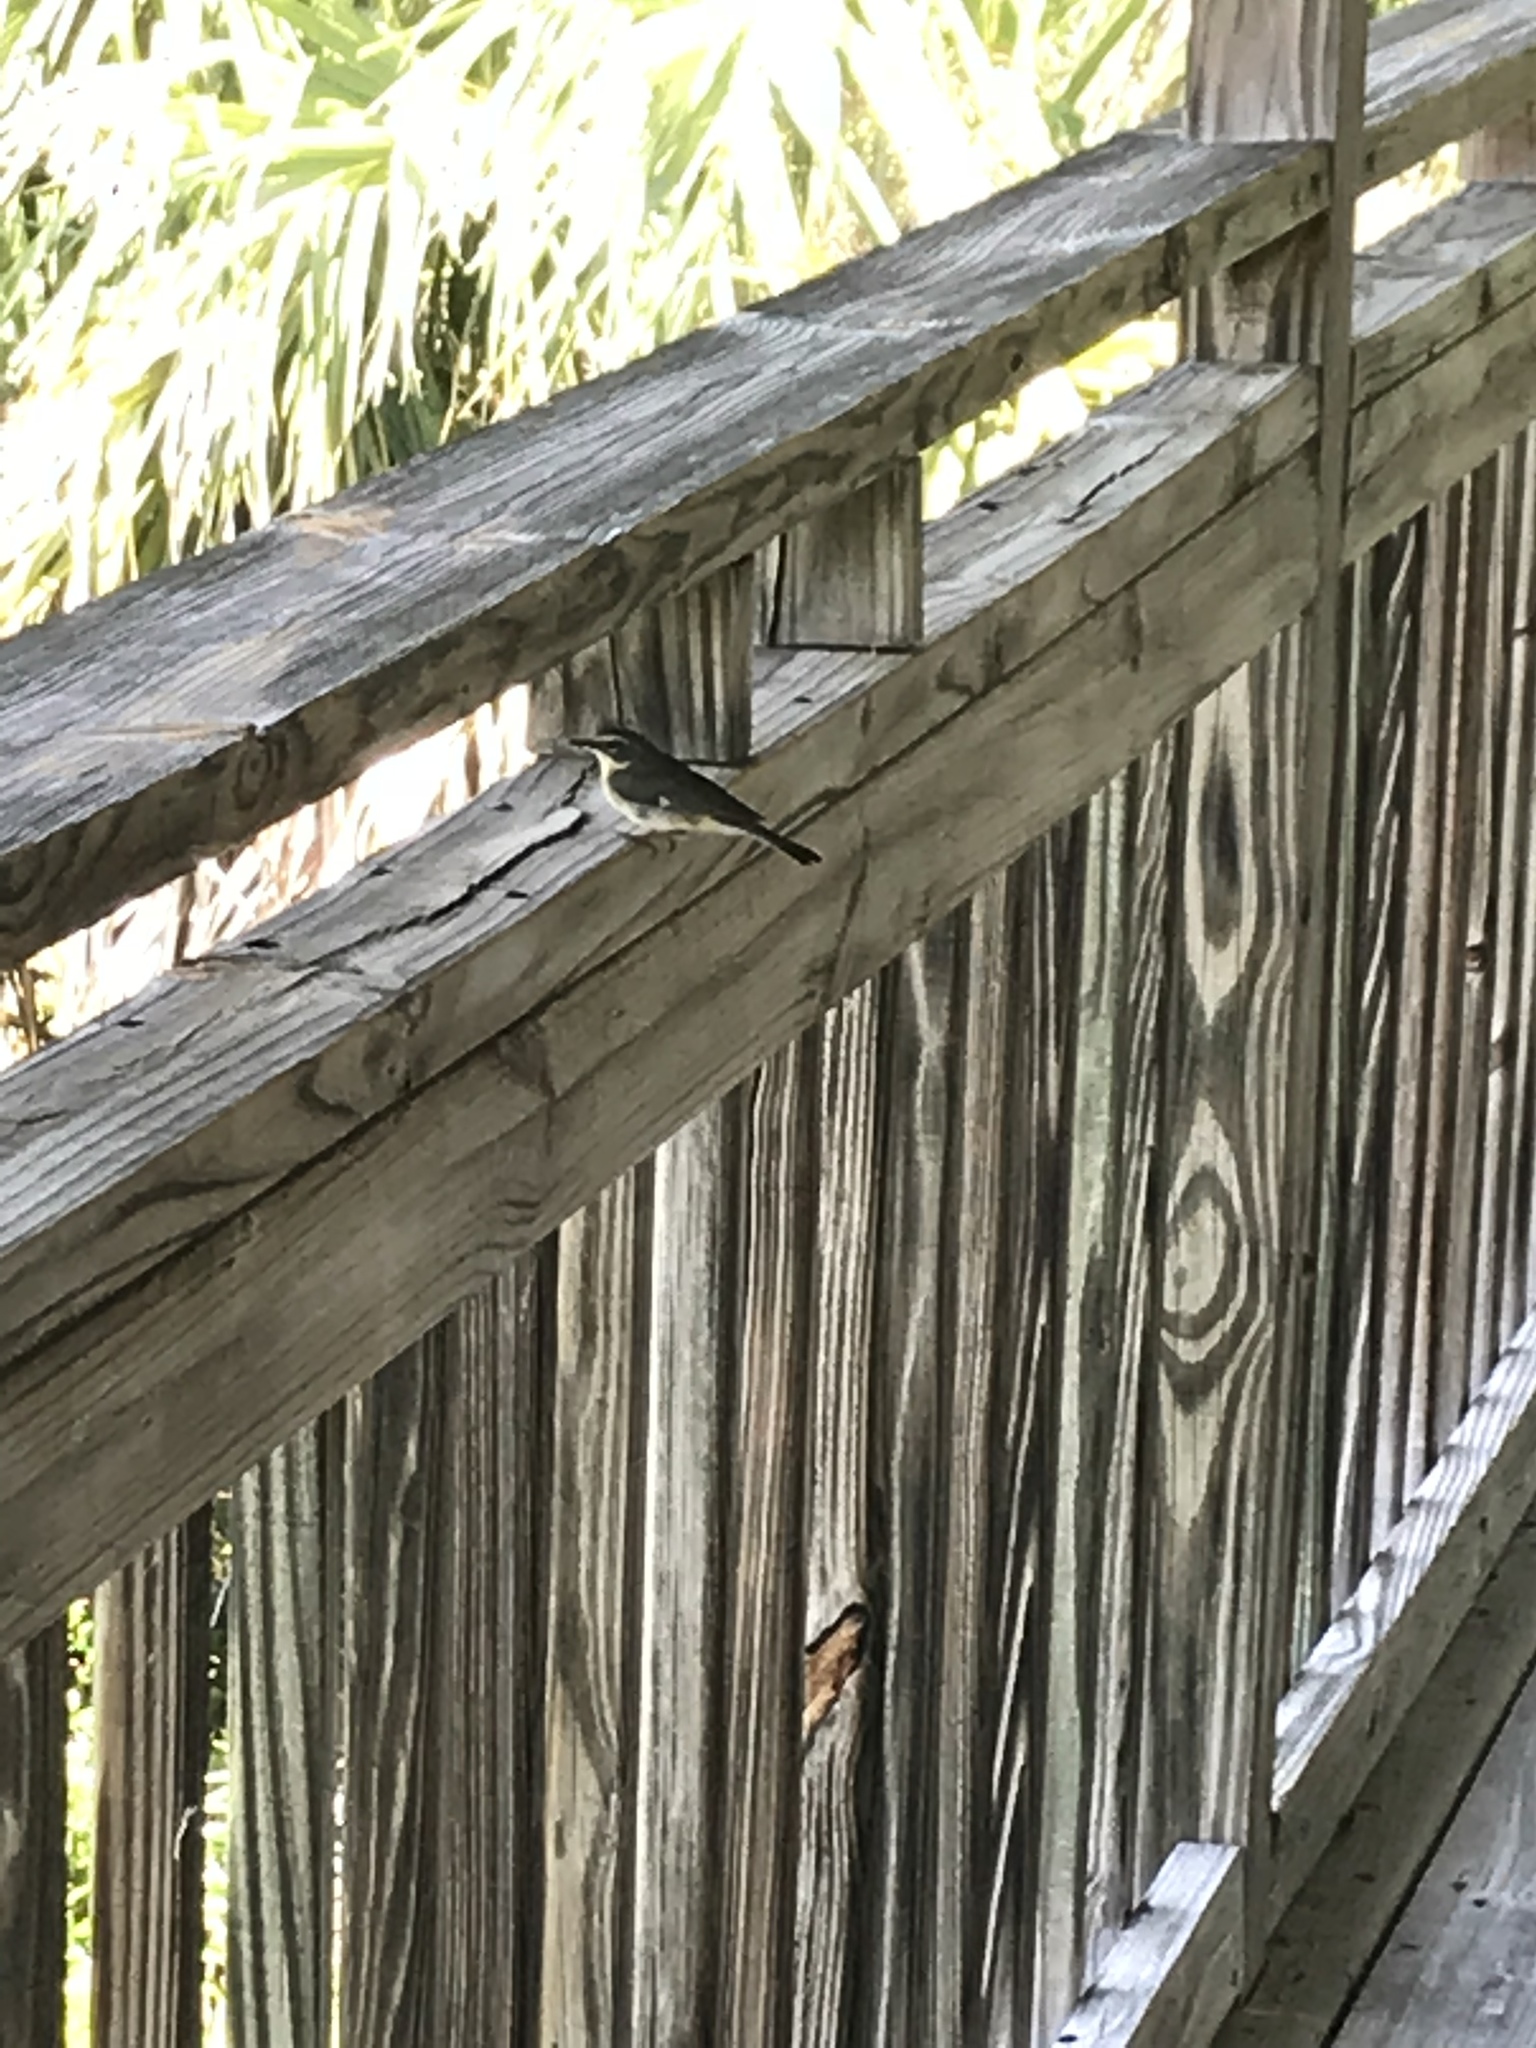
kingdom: Animalia
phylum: Chordata
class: Aves
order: Passeriformes
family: Parulidae
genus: Setophaga
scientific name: Setophaga caerulescens
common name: Black-throated blue warbler
